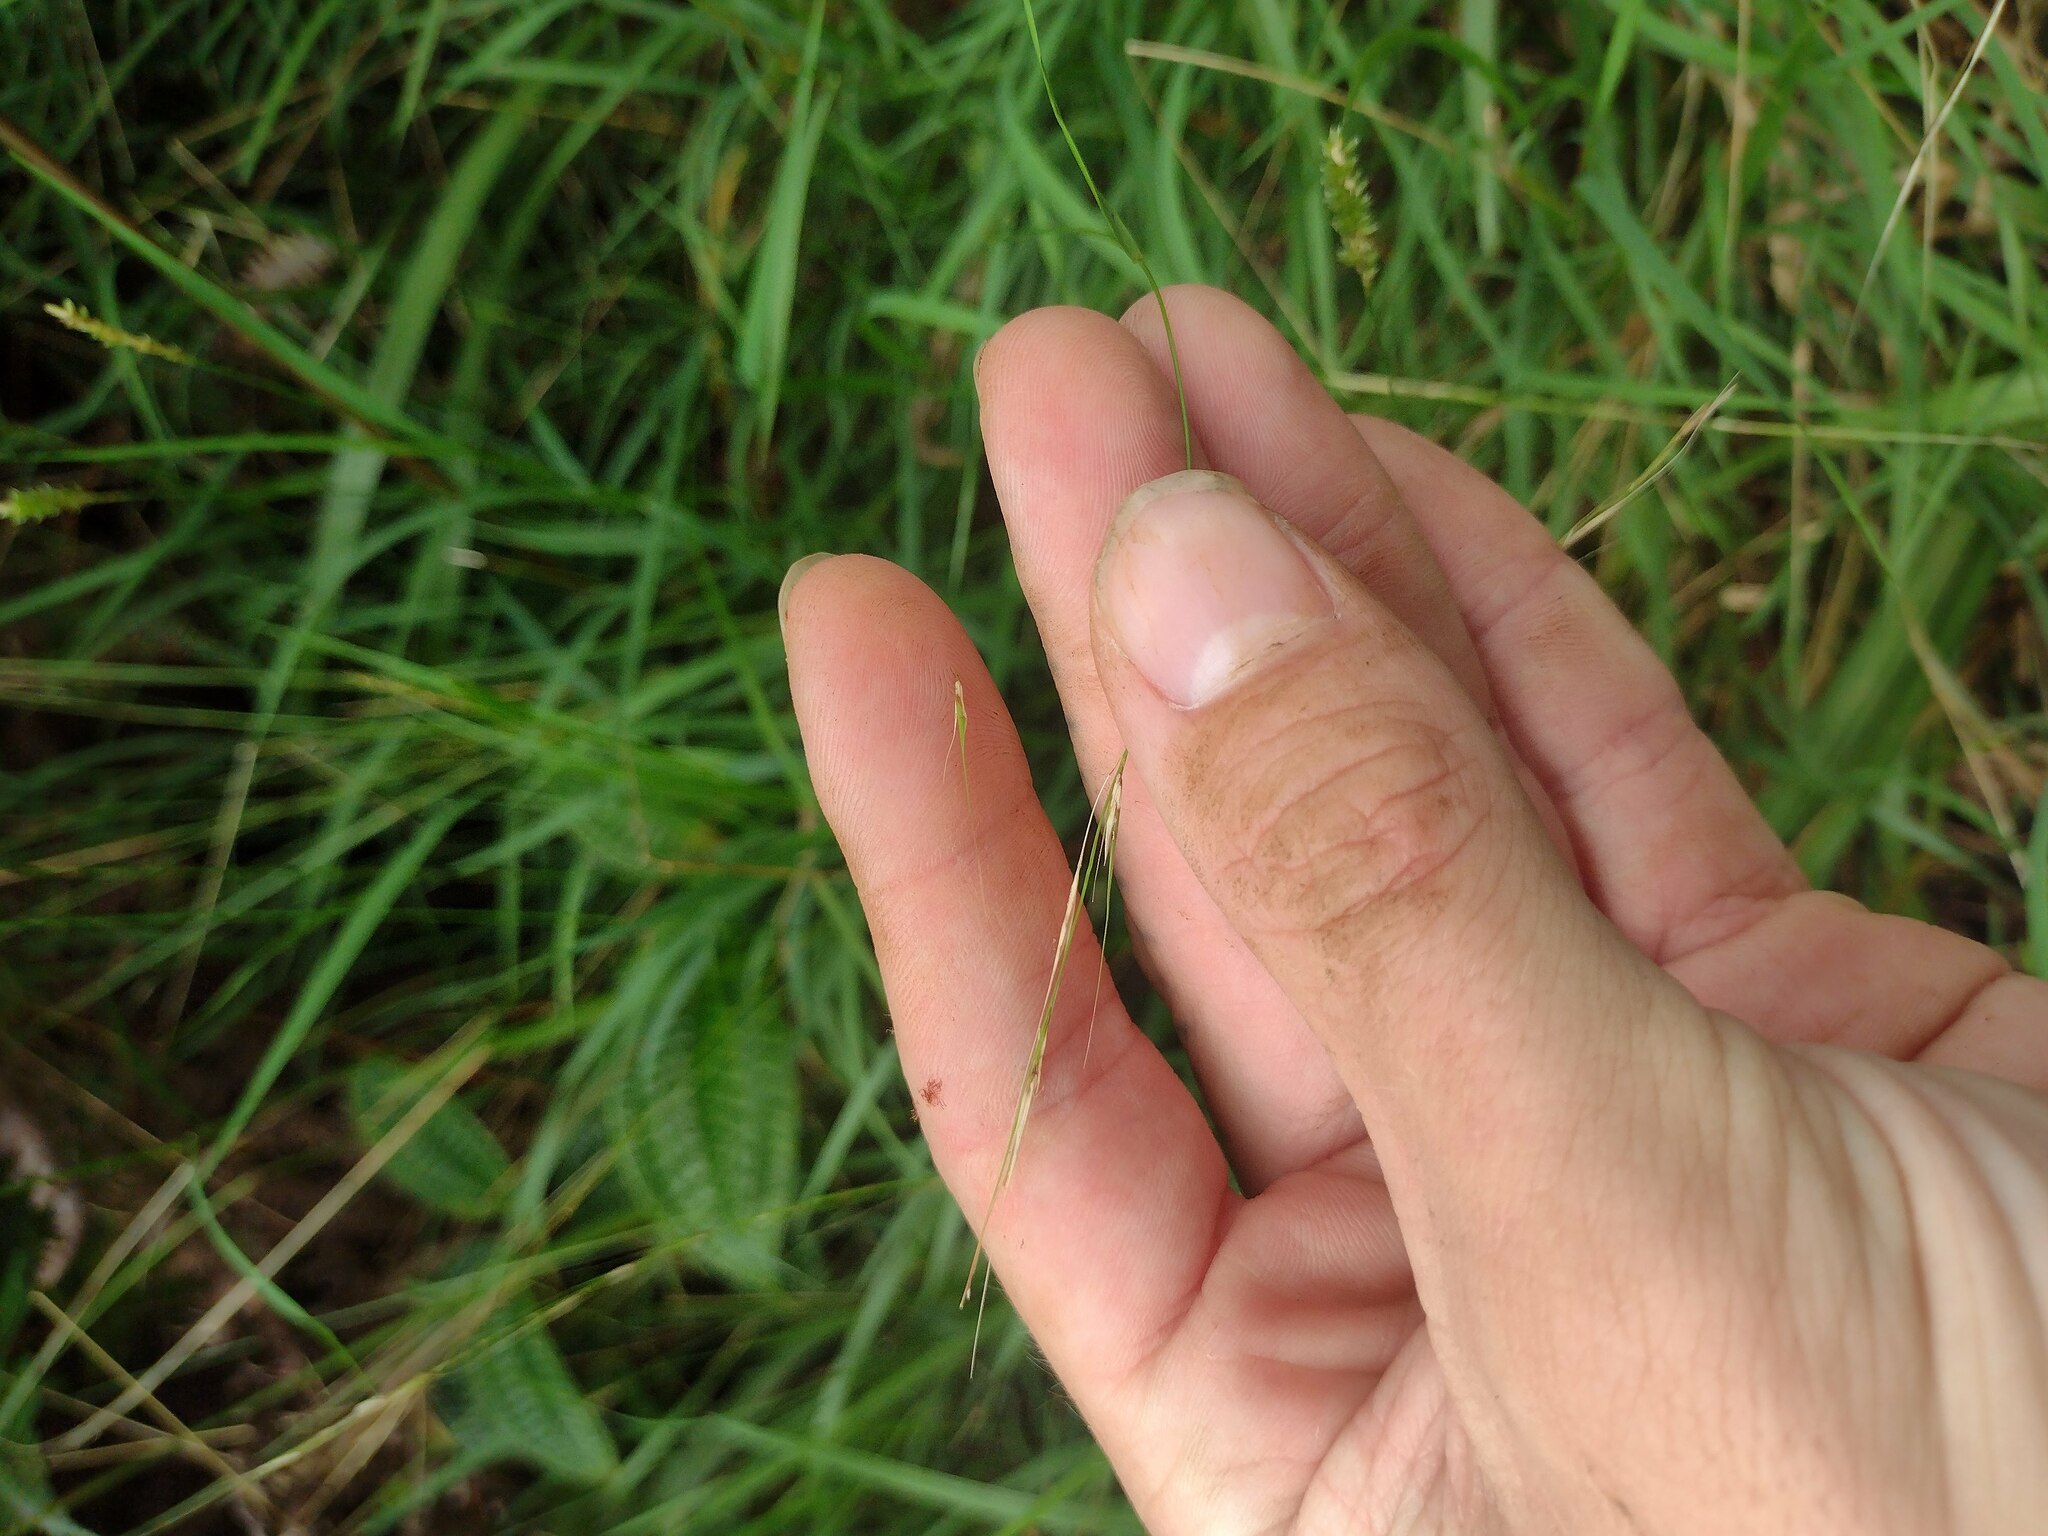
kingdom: Plantae
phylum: Tracheophyta
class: Liliopsida
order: Poales
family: Poaceae
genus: Microlaena
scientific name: Microlaena stipoides
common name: Meadow ricegrass
